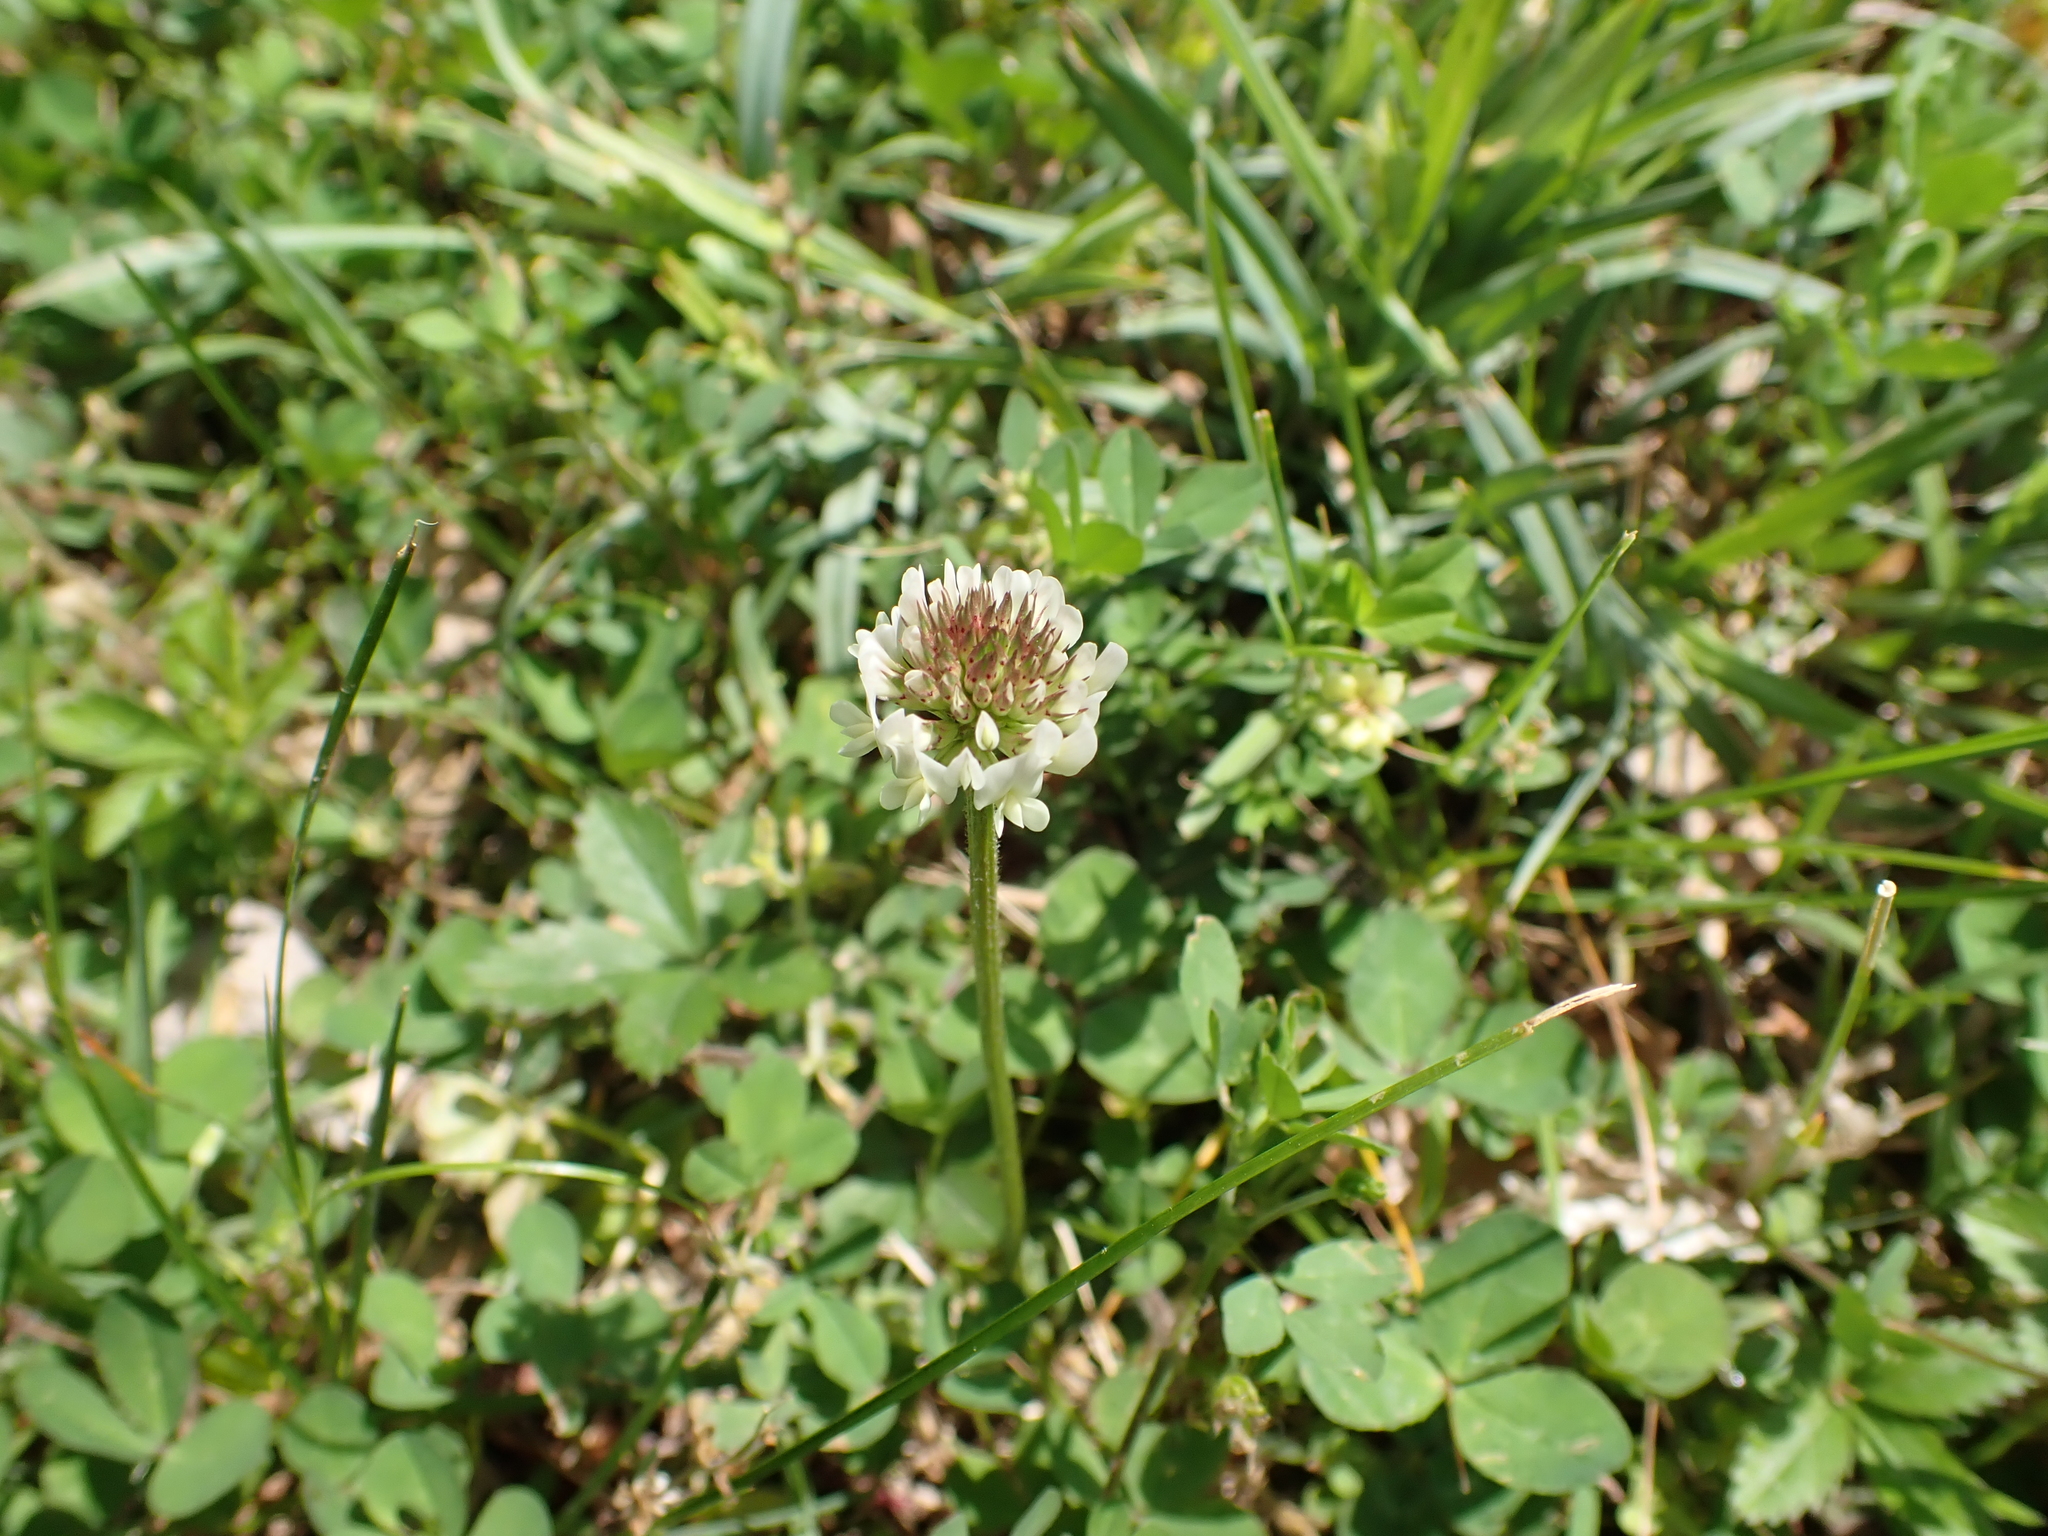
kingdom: Plantae
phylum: Tracheophyta
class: Magnoliopsida
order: Fabales
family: Fabaceae
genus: Trifolium
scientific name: Trifolium repens
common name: White clover
